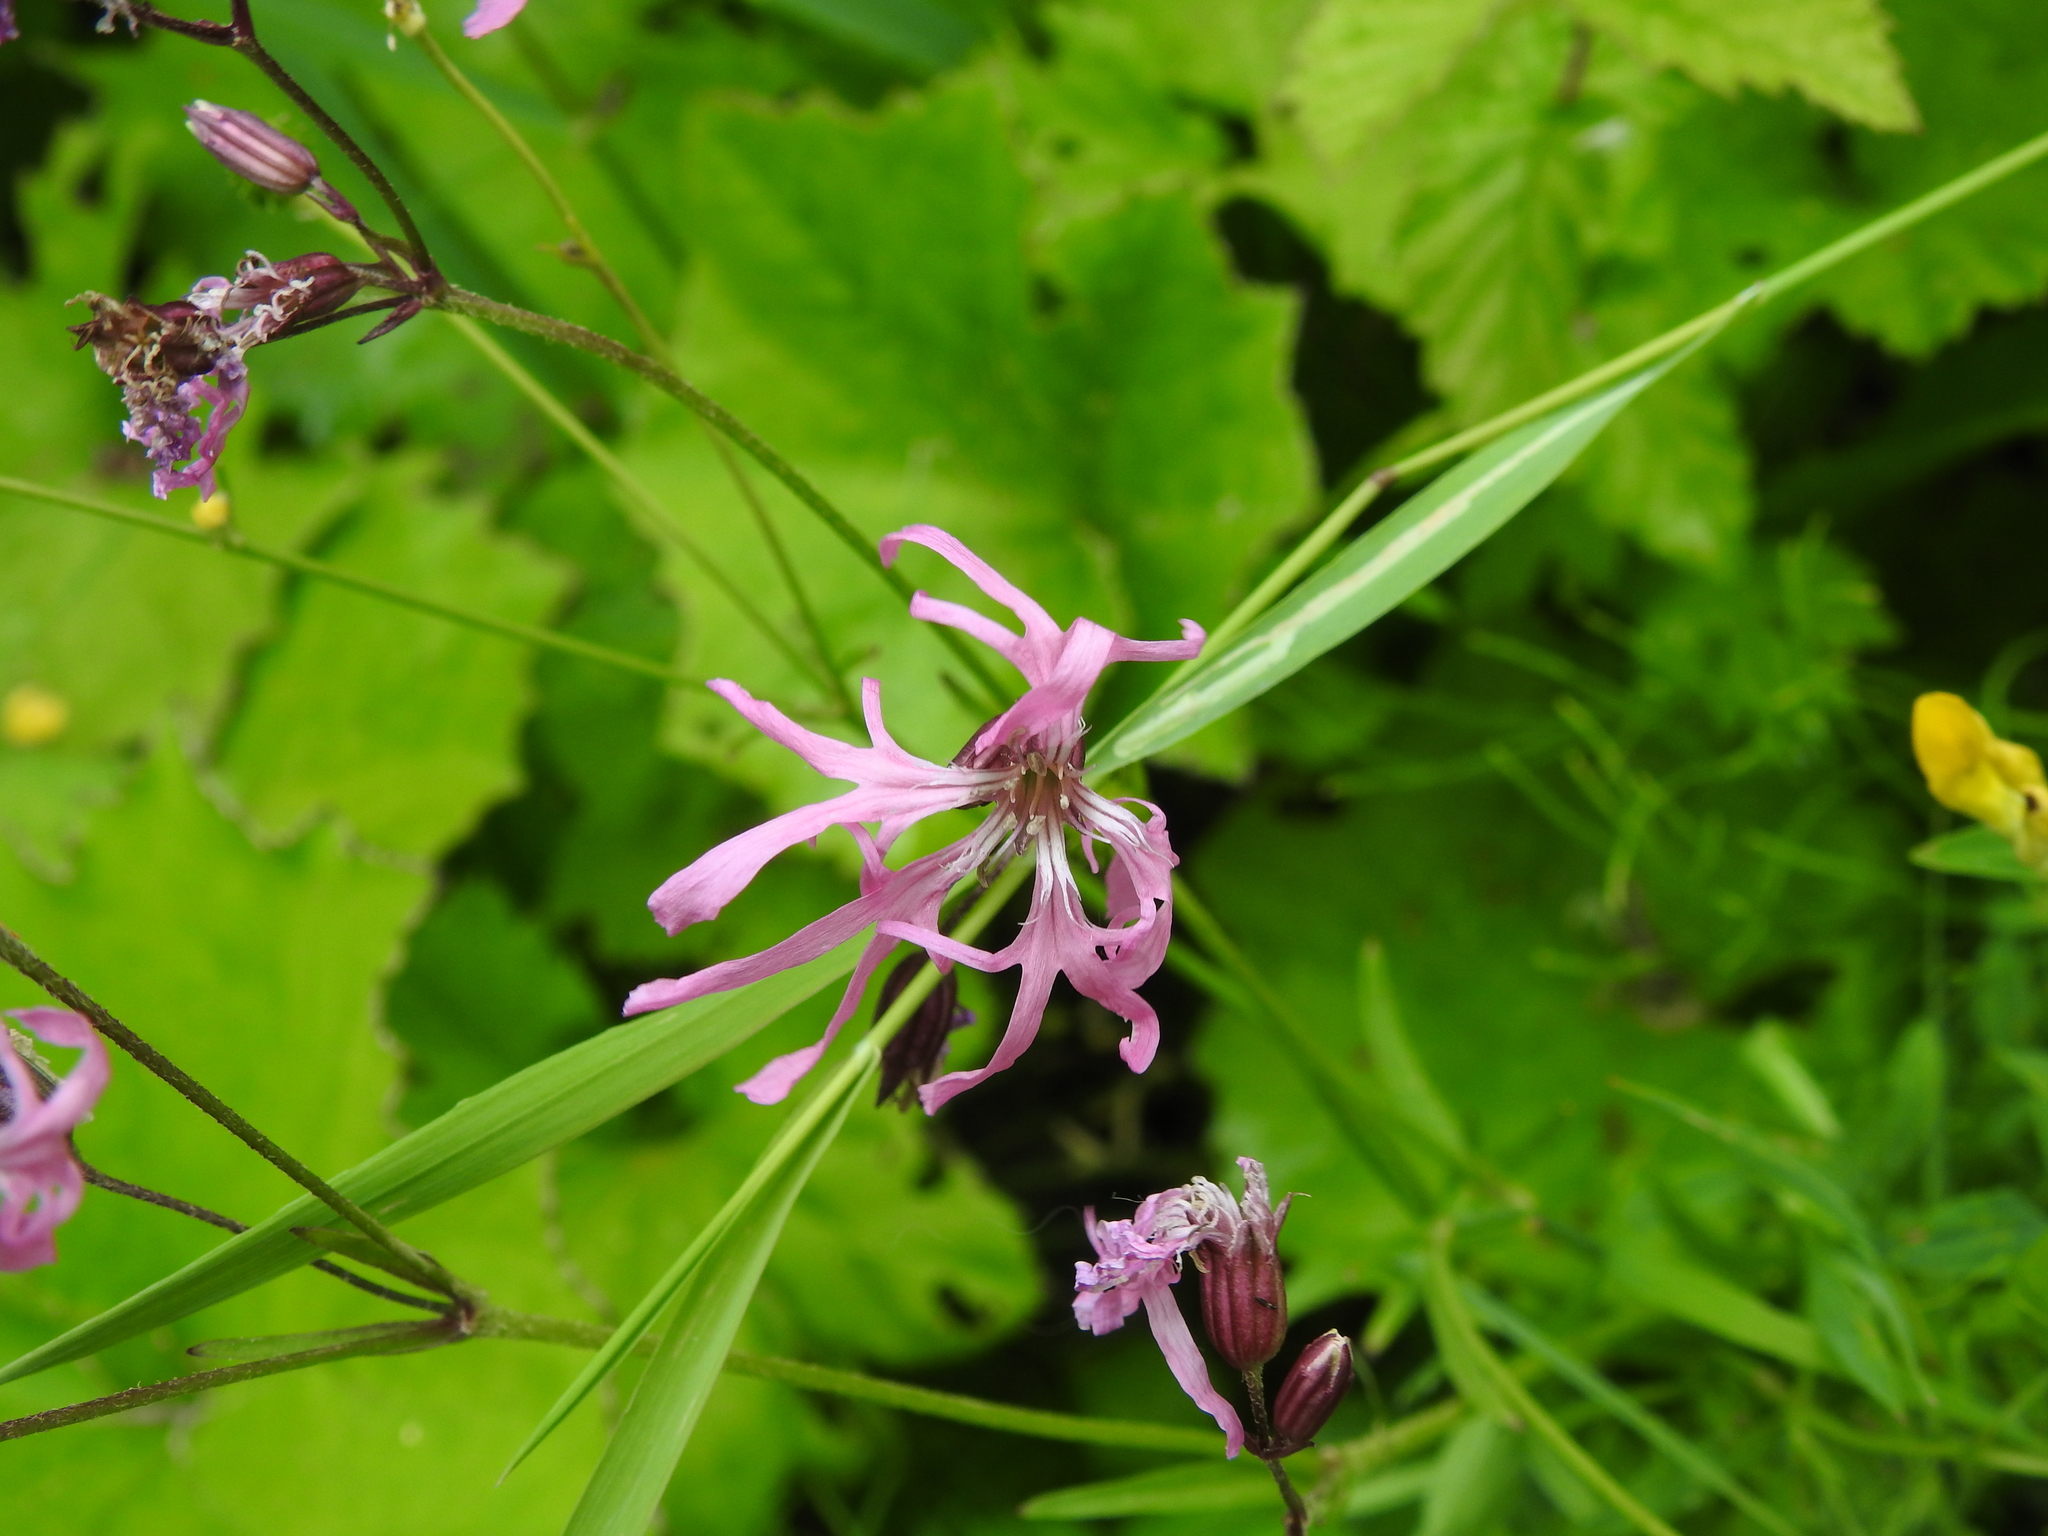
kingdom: Plantae
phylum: Tracheophyta
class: Magnoliopsida
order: Caryophyllales
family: Caryophyllaceae
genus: Silene
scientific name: Silene flos-cuculi
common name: Ragged-robin
